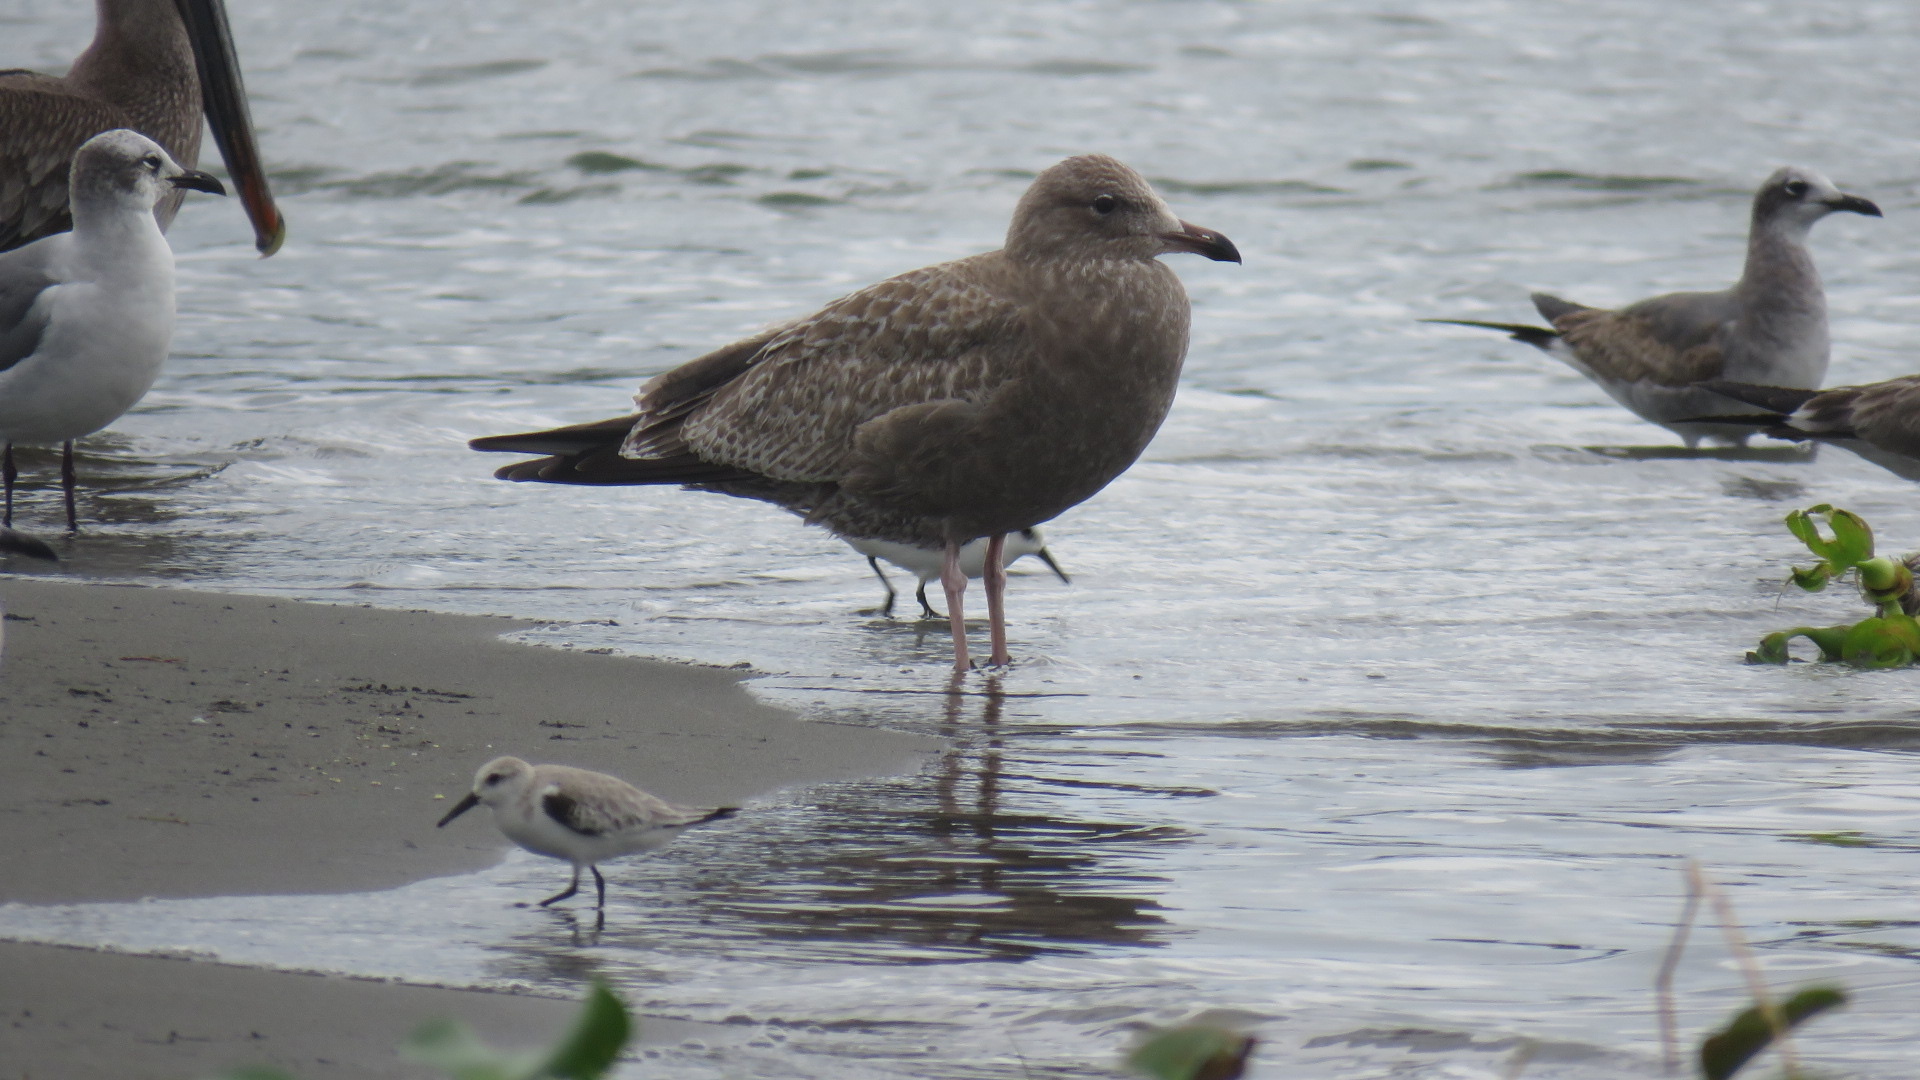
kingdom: Animalia
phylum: Chordata
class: Aves
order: Charadriiformes
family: Laridae
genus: Larus
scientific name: Larus argentatus
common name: Herring gull
